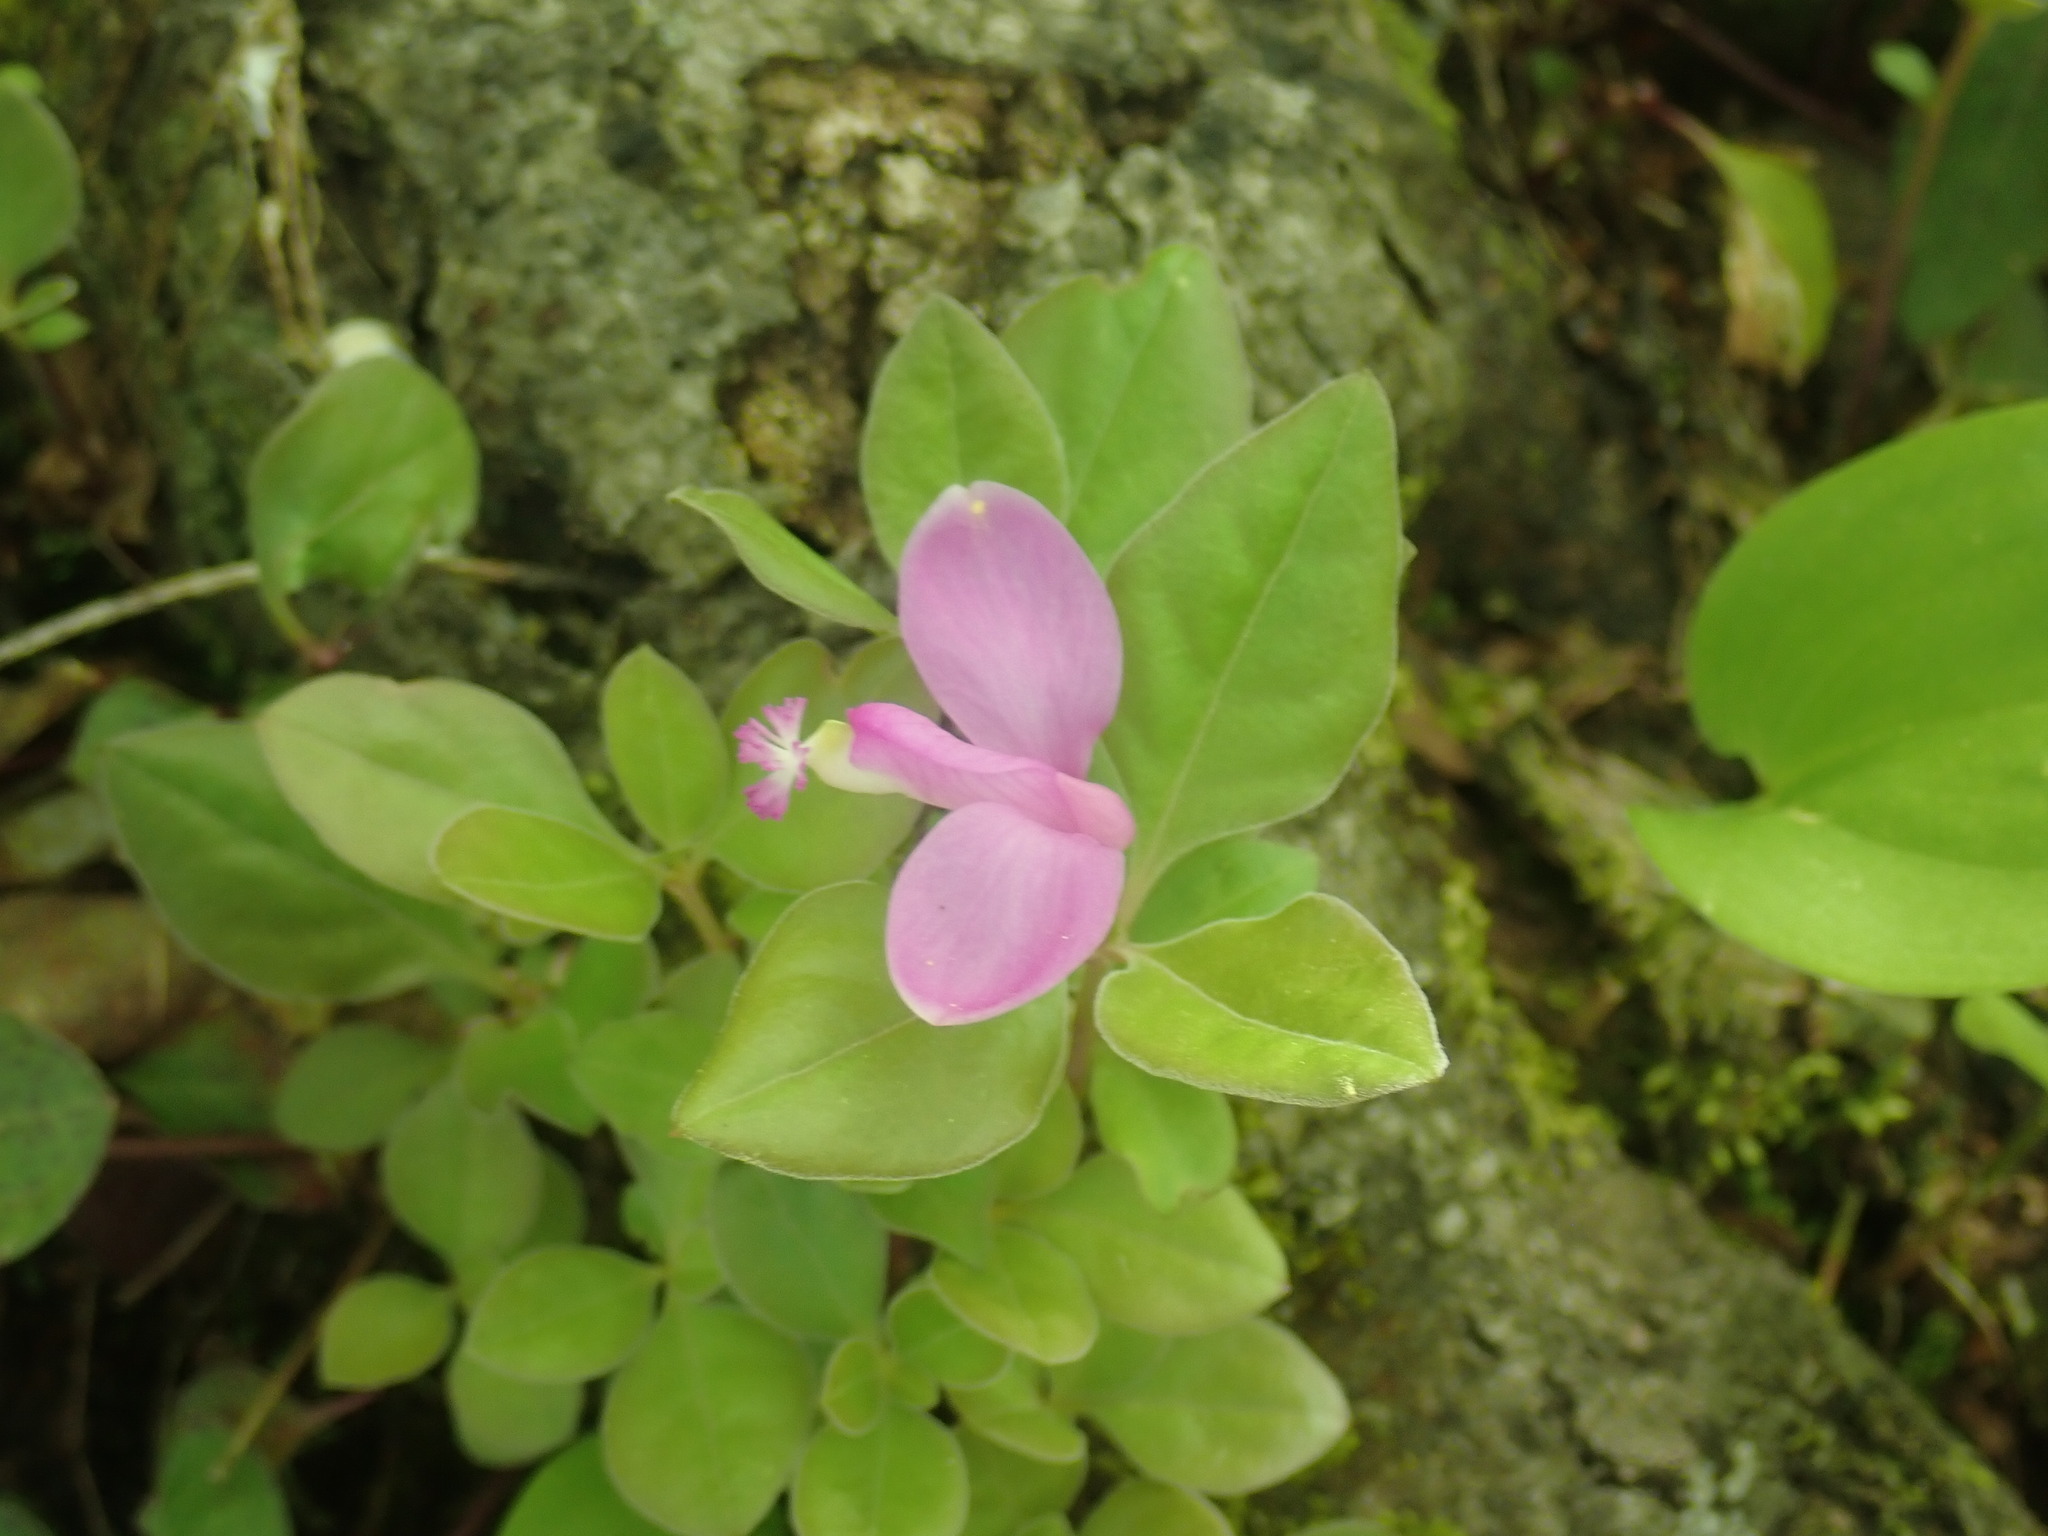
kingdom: Plantae
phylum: Tracheophyta
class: Magnoliopsida
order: Fabales
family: Polygalaceae
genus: Polygaloides
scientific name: Polygaloides paucifolia
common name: Bird-on-the-wing
